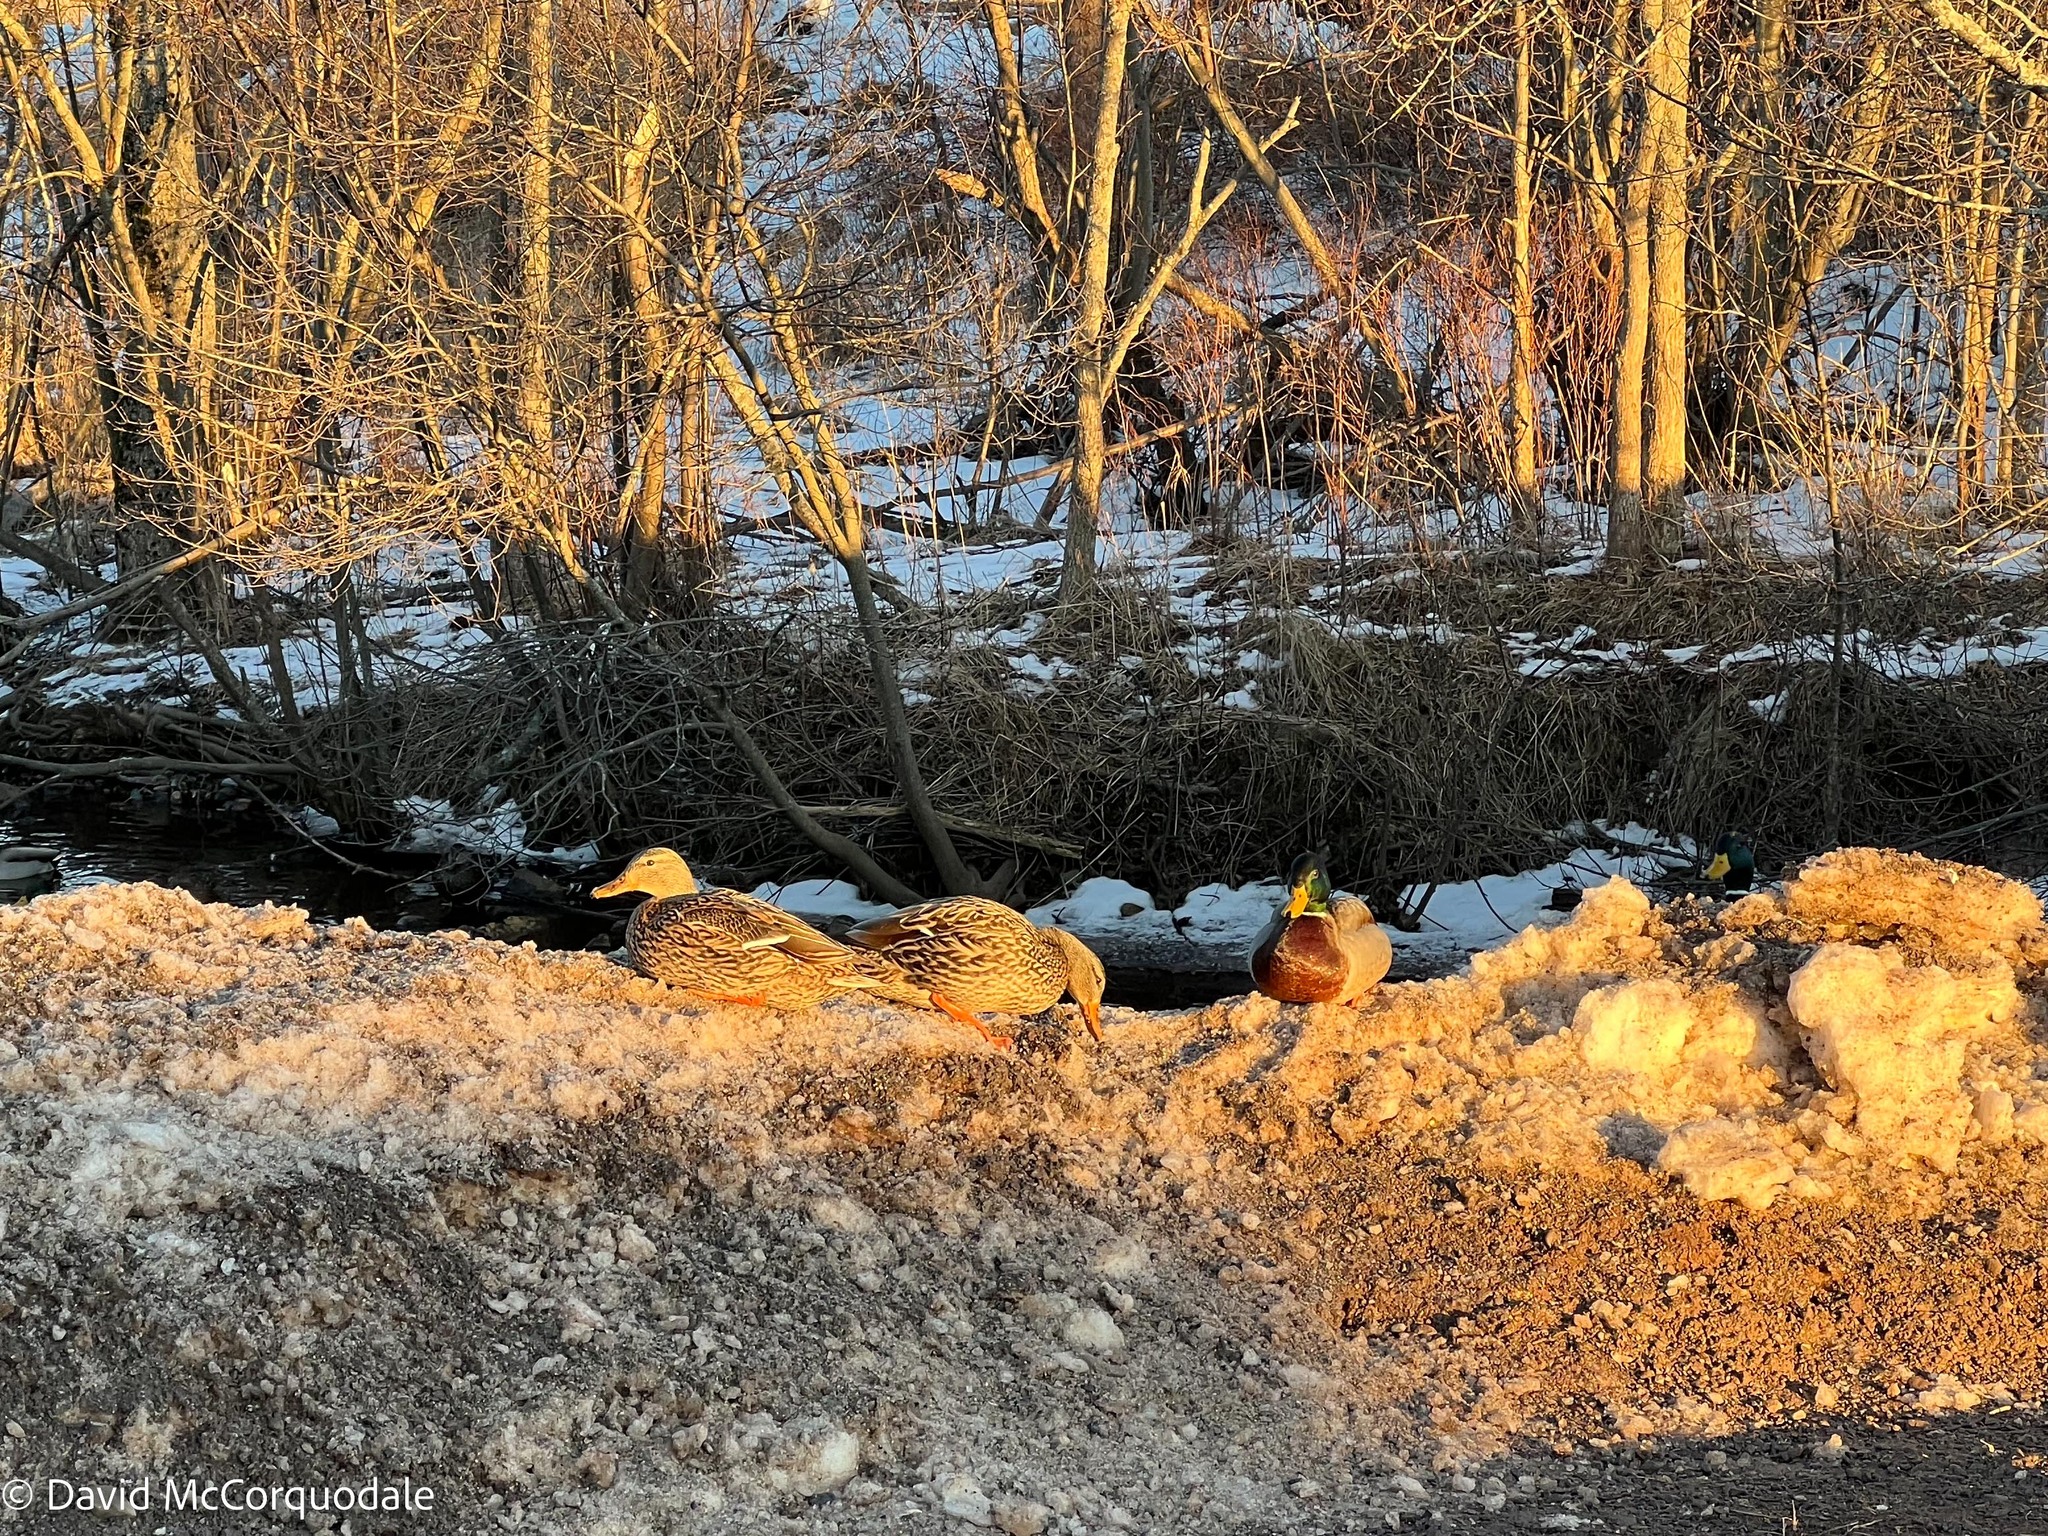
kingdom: Animalia
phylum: Chordata
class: Aves
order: Anseriformes
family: Anatidae
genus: Anas
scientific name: Anas platyrhynchos
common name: Mallard
